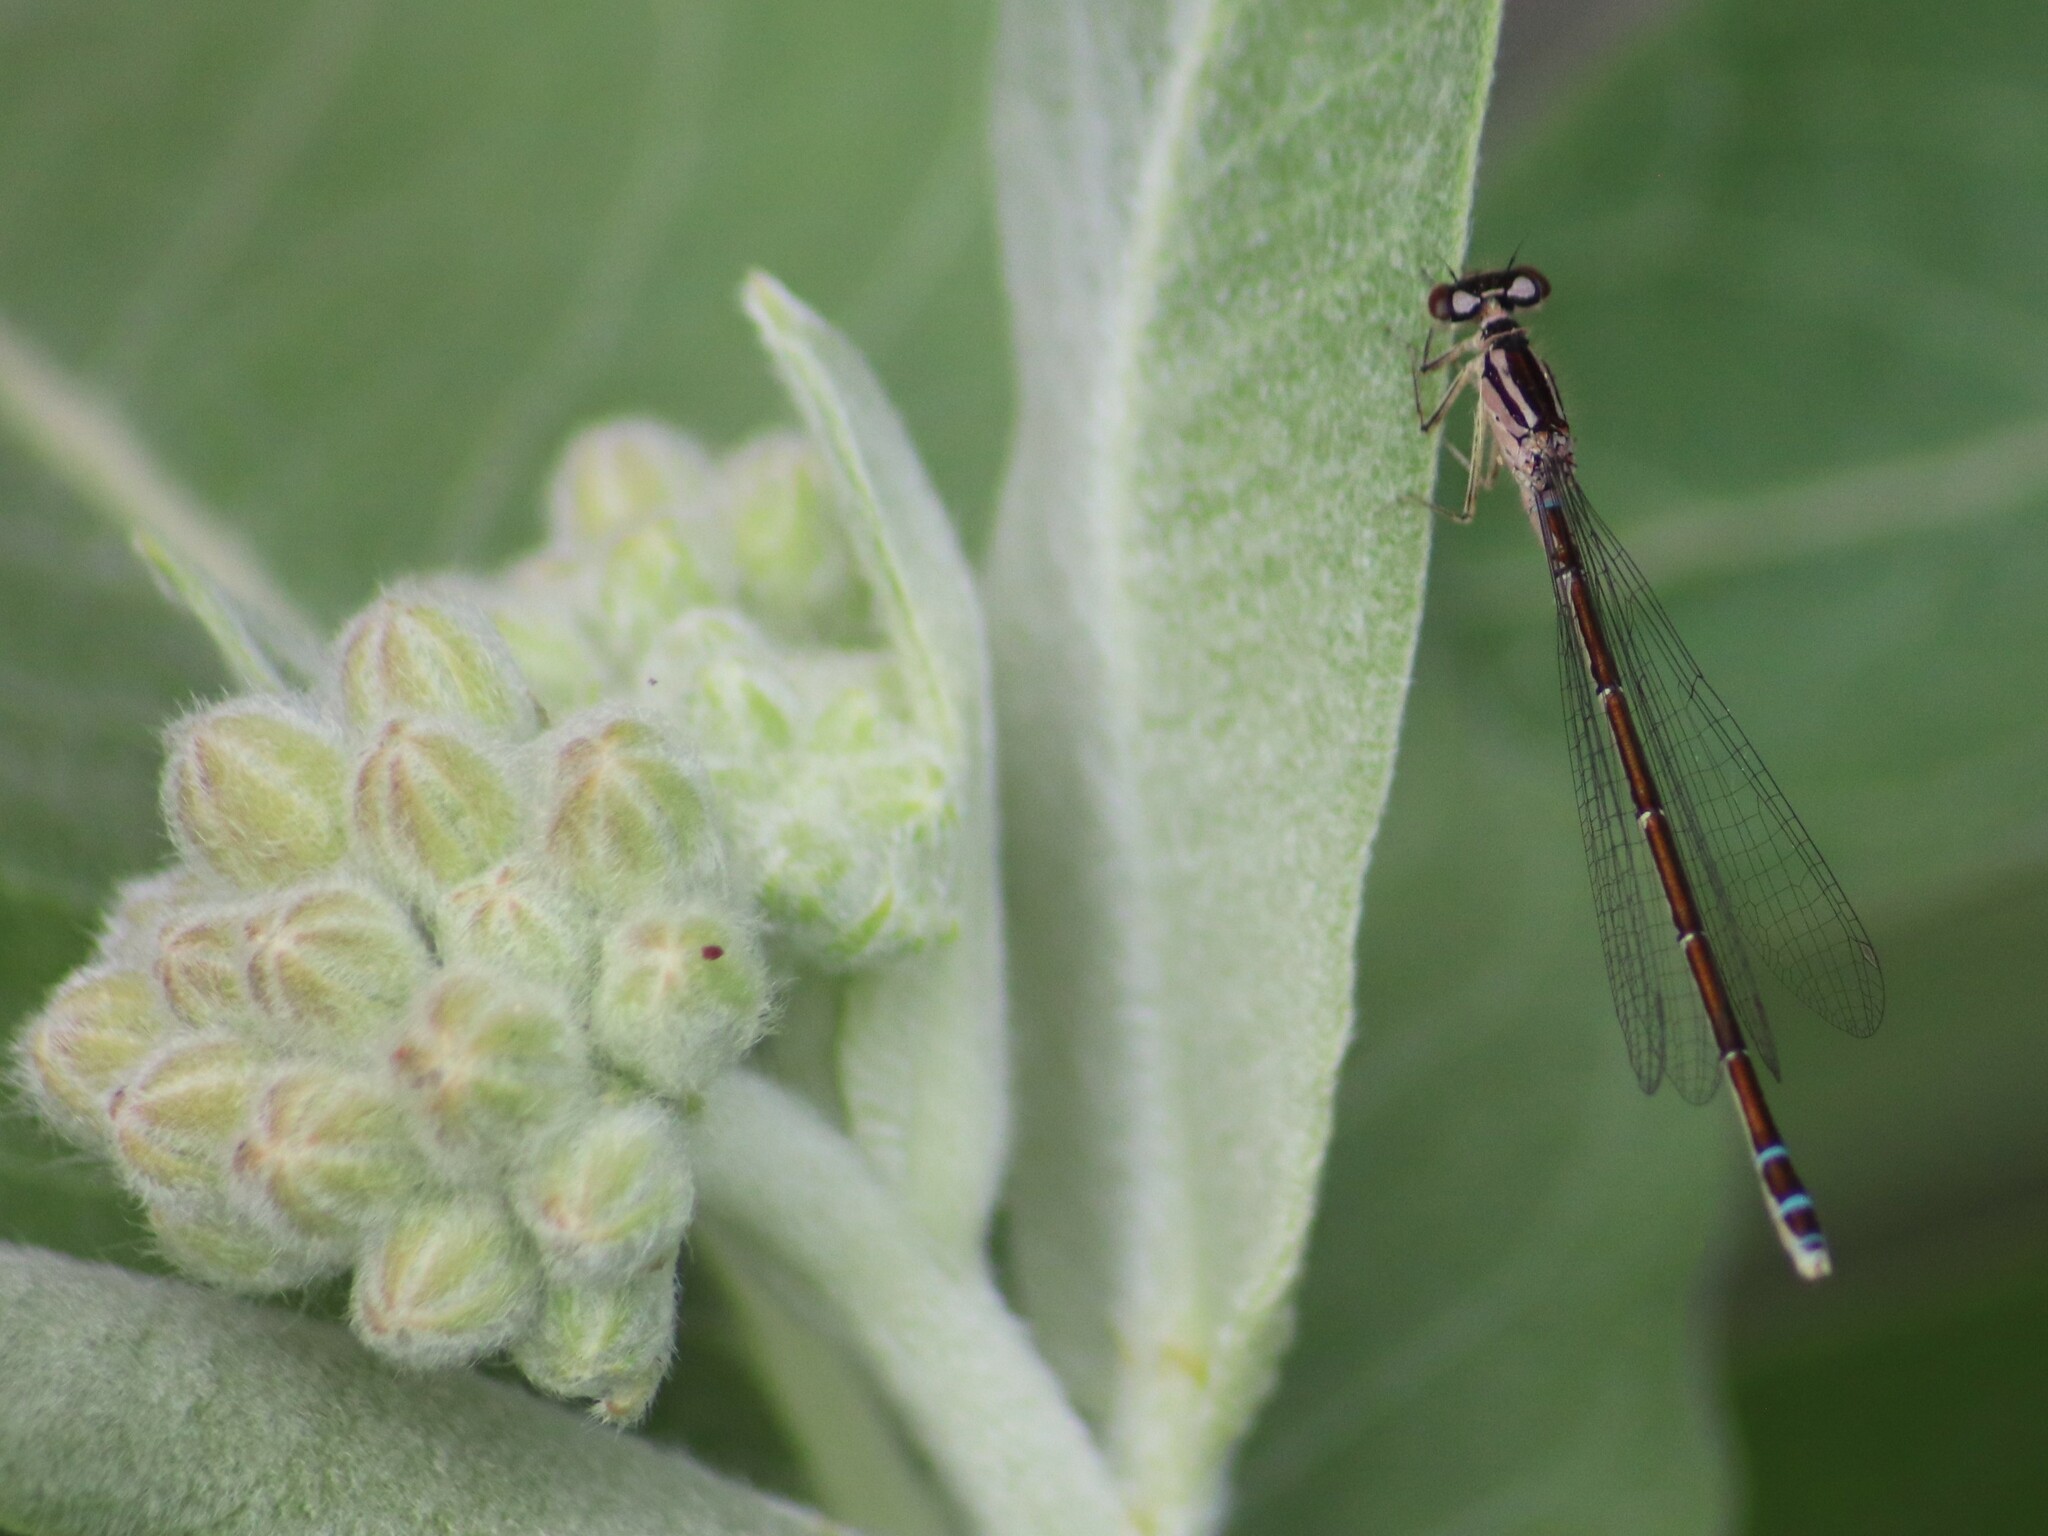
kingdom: Animalia
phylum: Arthropoda
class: Insecta
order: Odonata
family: Coenagrionidae
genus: Coenagrion
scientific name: Coenagrion resolutum
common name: Taiga bluet
